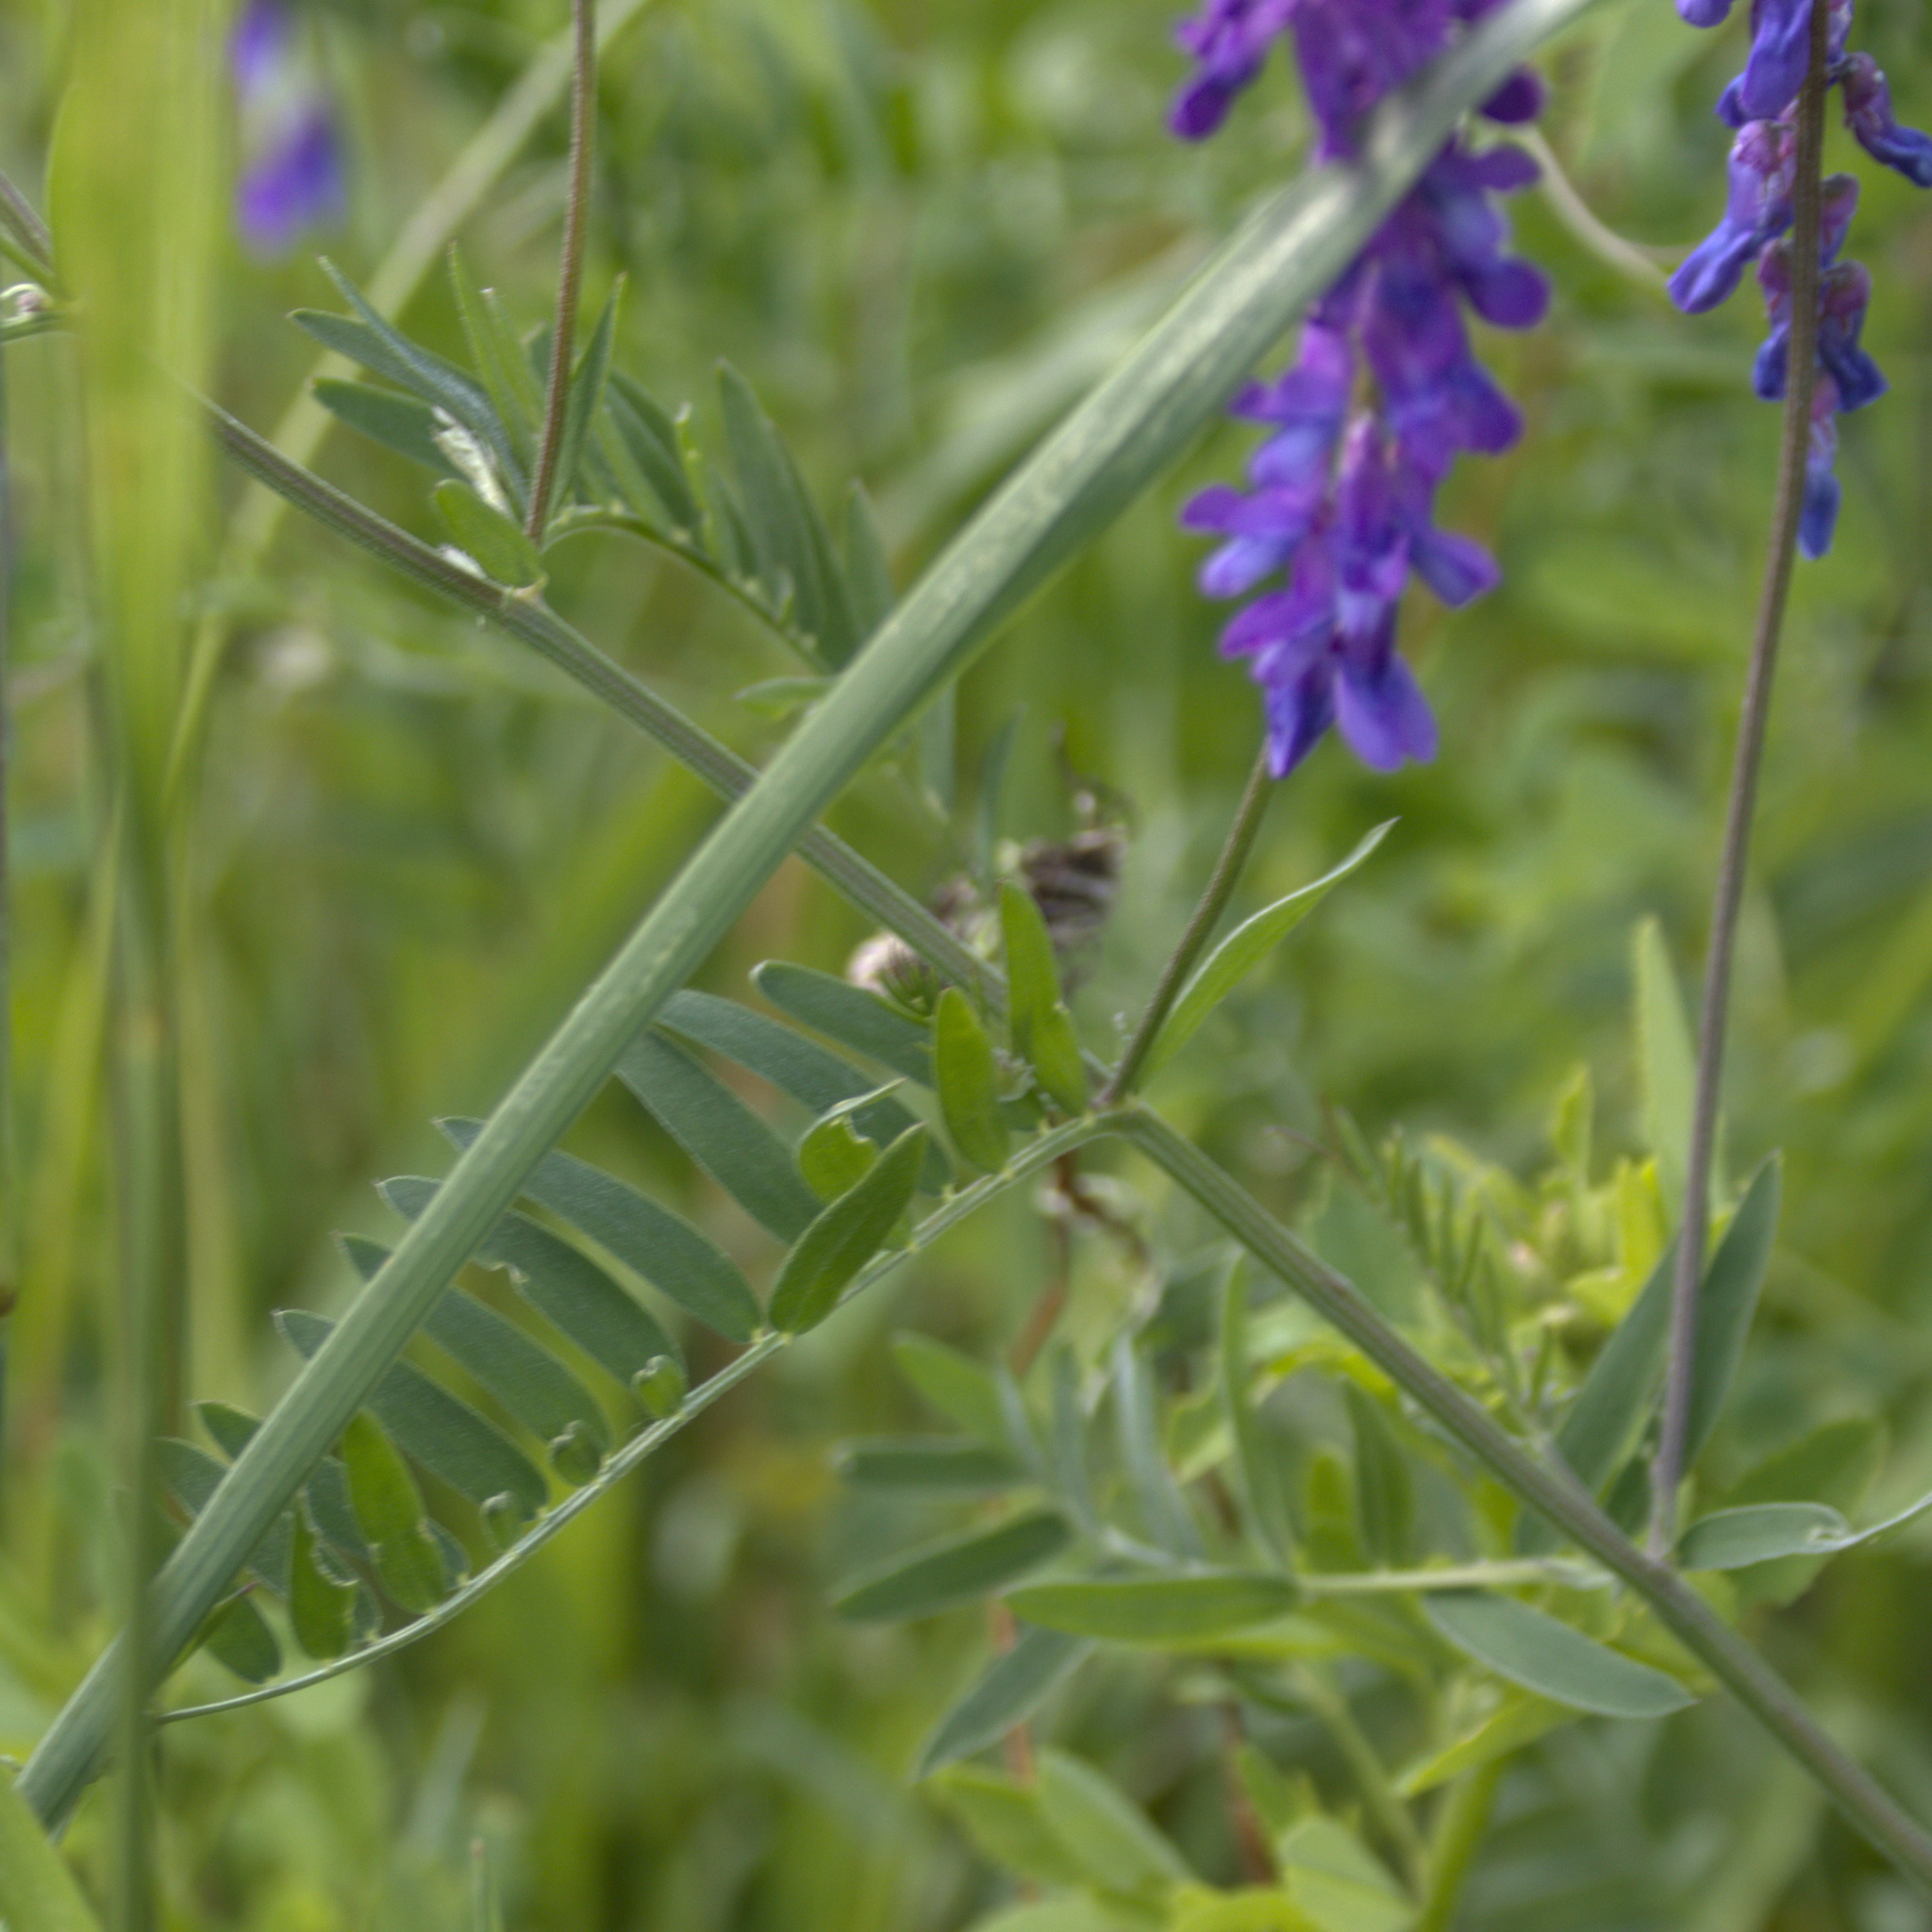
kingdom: Plantae
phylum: Tracheophyta
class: Magnoliopsida
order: Fabales
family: Fabaceae
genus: Vicia
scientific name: Vicia cracca
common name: Bird vetch
